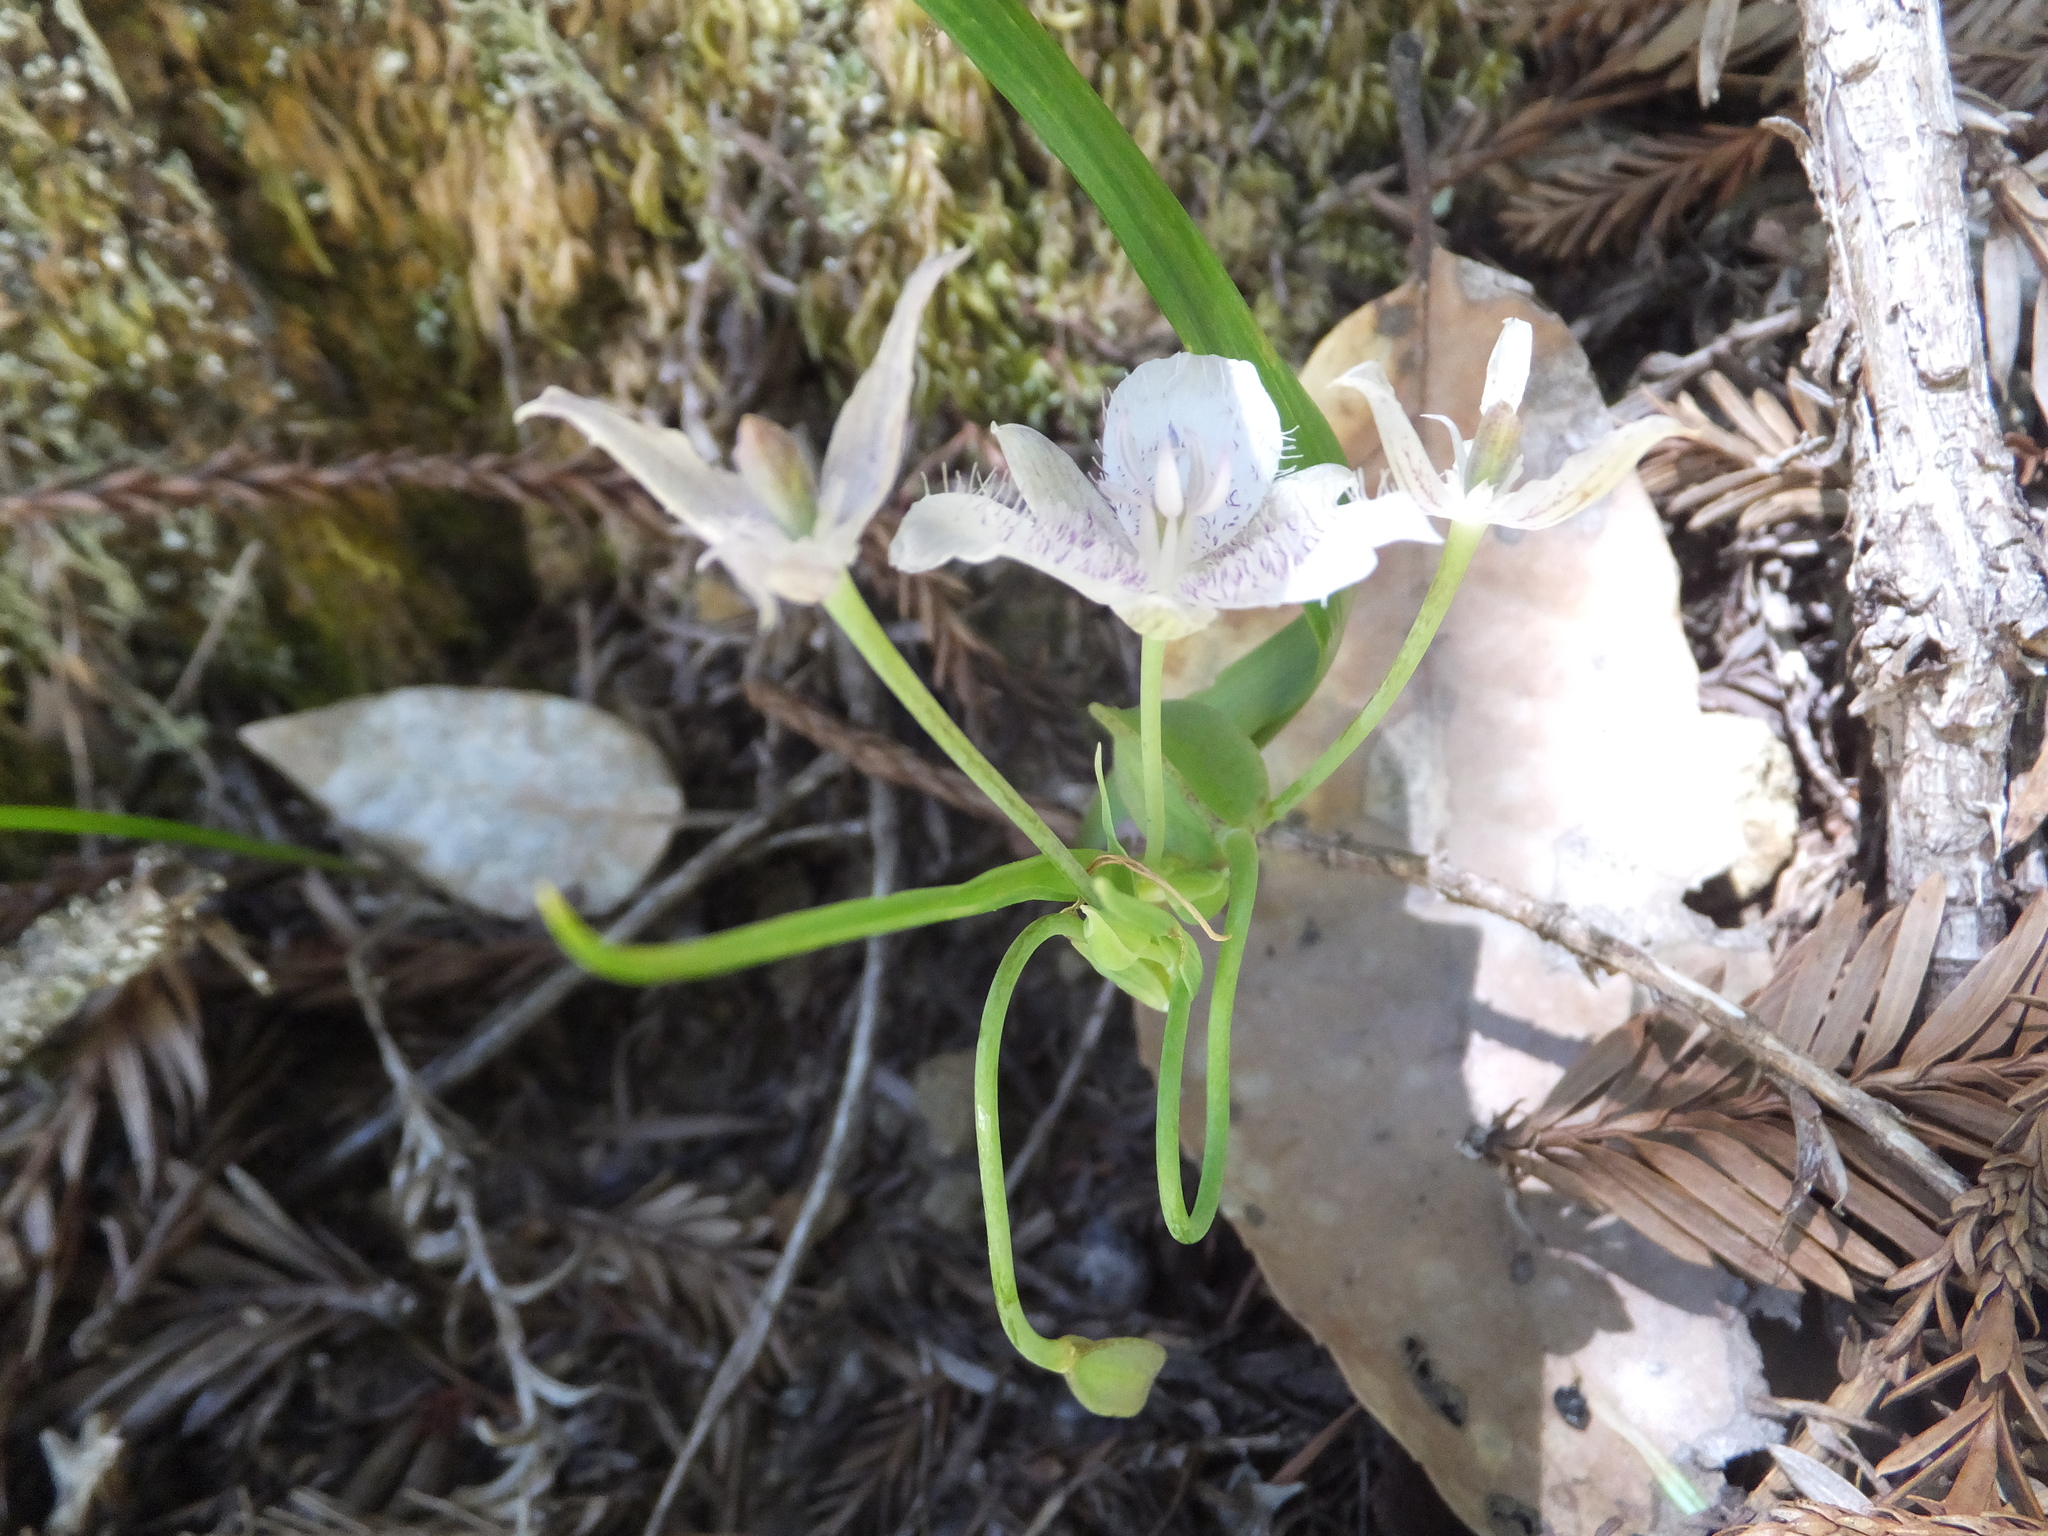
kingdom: Plantae
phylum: Tracheophyta
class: Liliopsida
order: Liliales
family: Liliaceae
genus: Calochortus
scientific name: Calochortus tolmiei
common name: Pussy-ears
